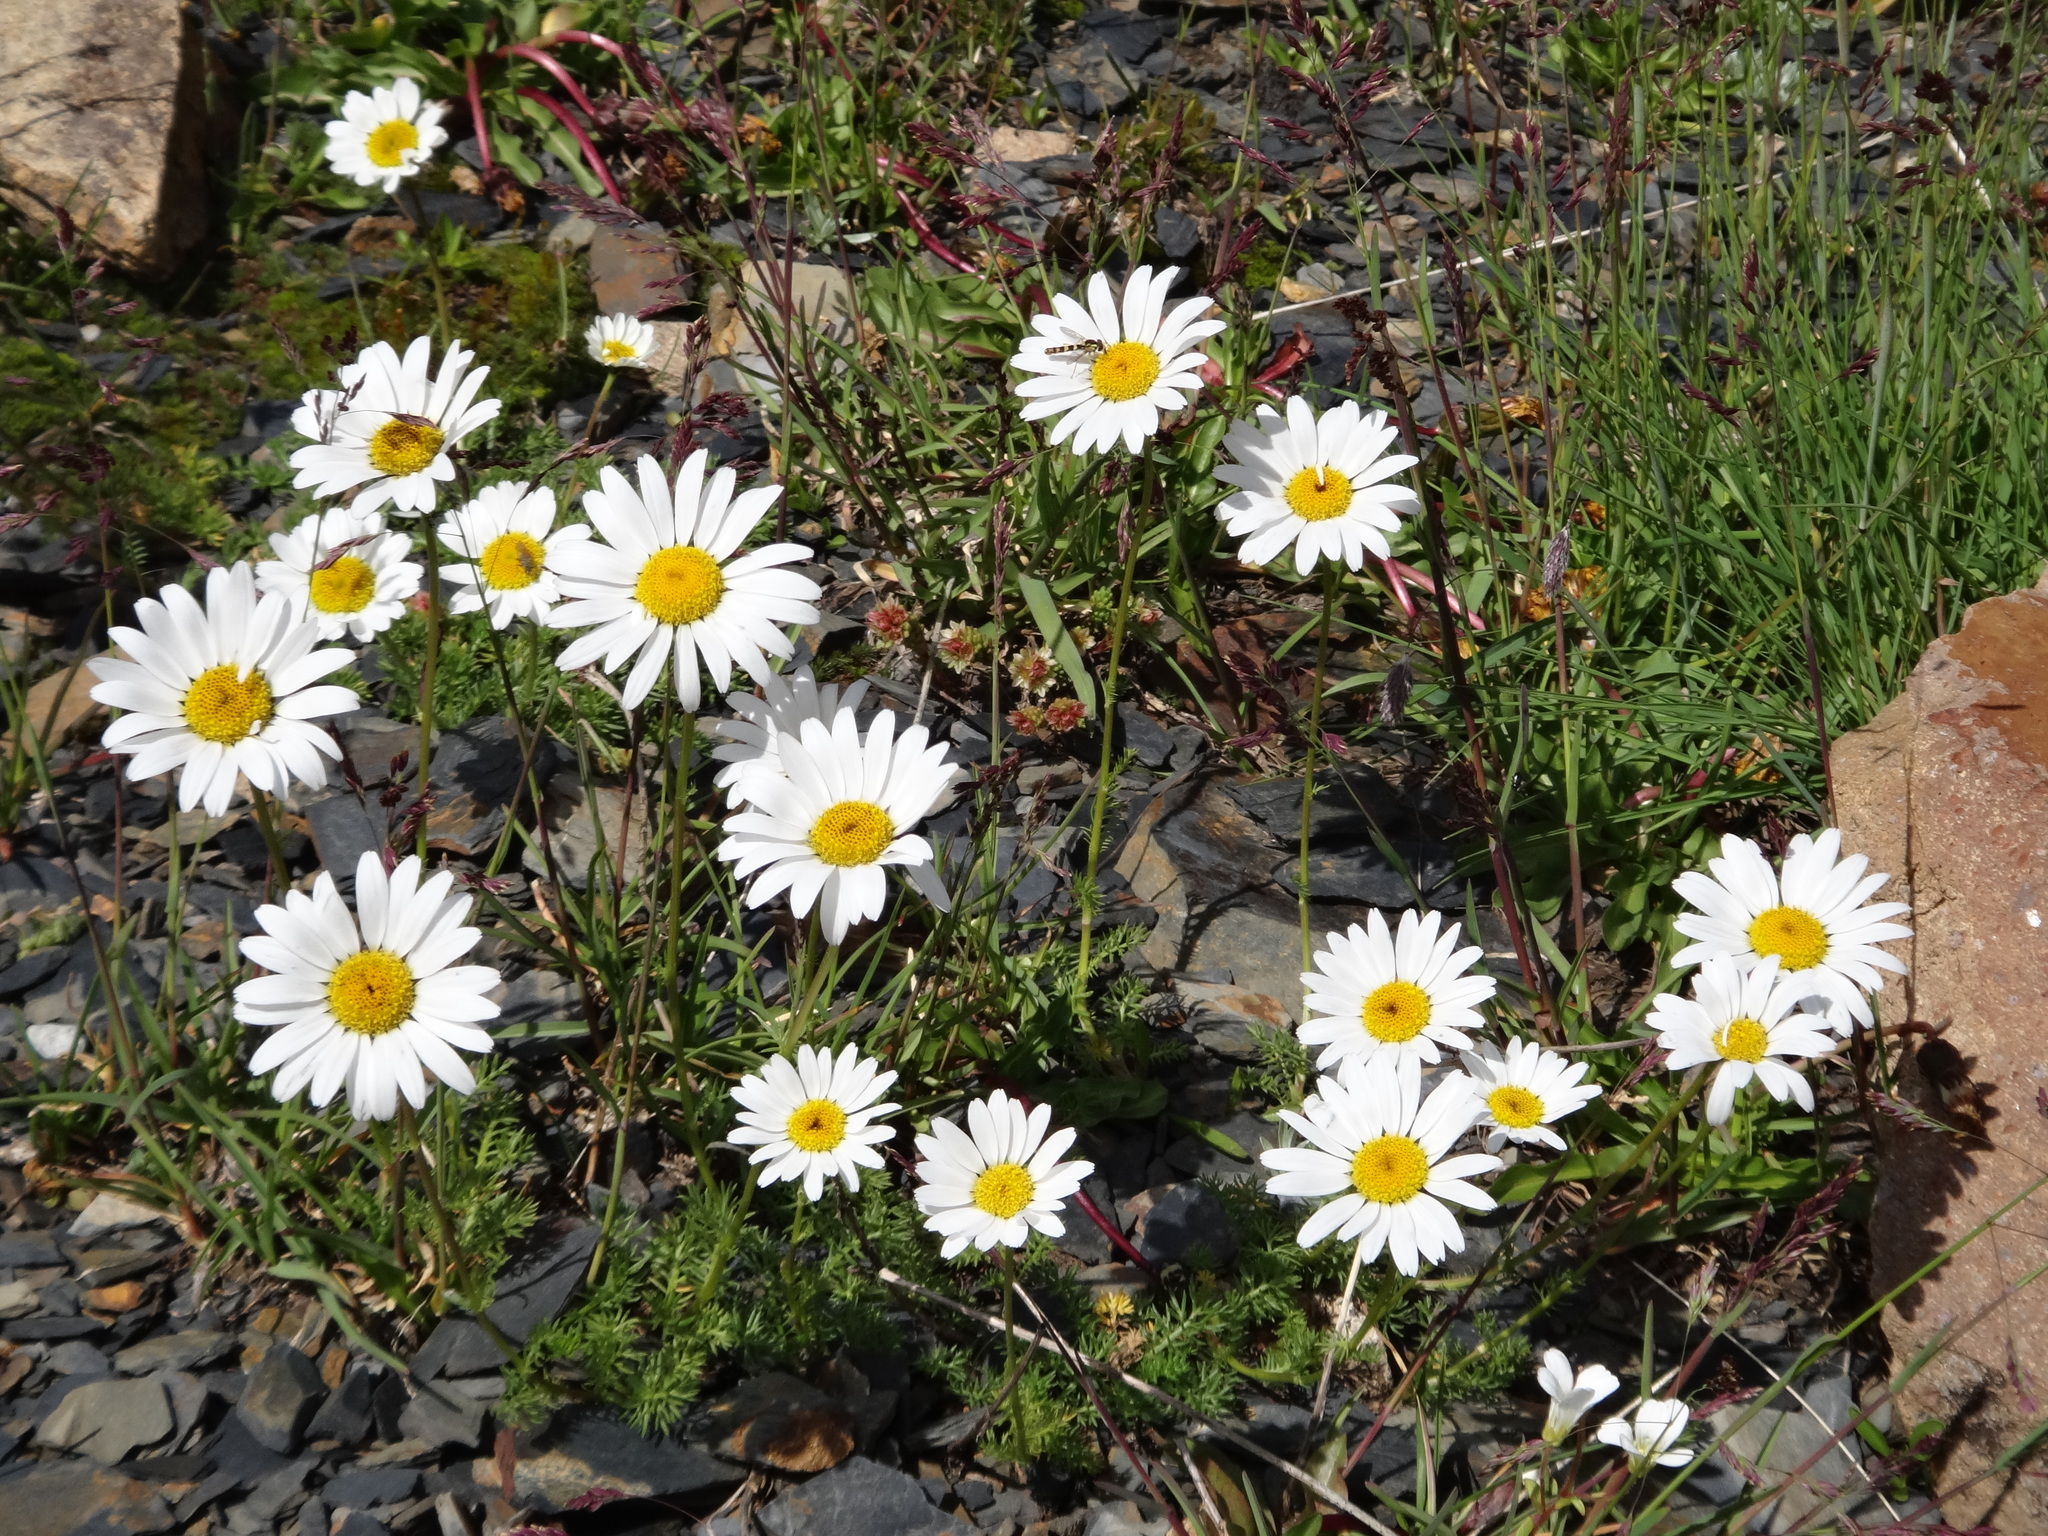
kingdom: Plantae
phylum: Tracheophyta
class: Magnoliopsida
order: Asterales
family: Asteraceae
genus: Tripleurospermum
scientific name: Tripleurospermum caucasicum
